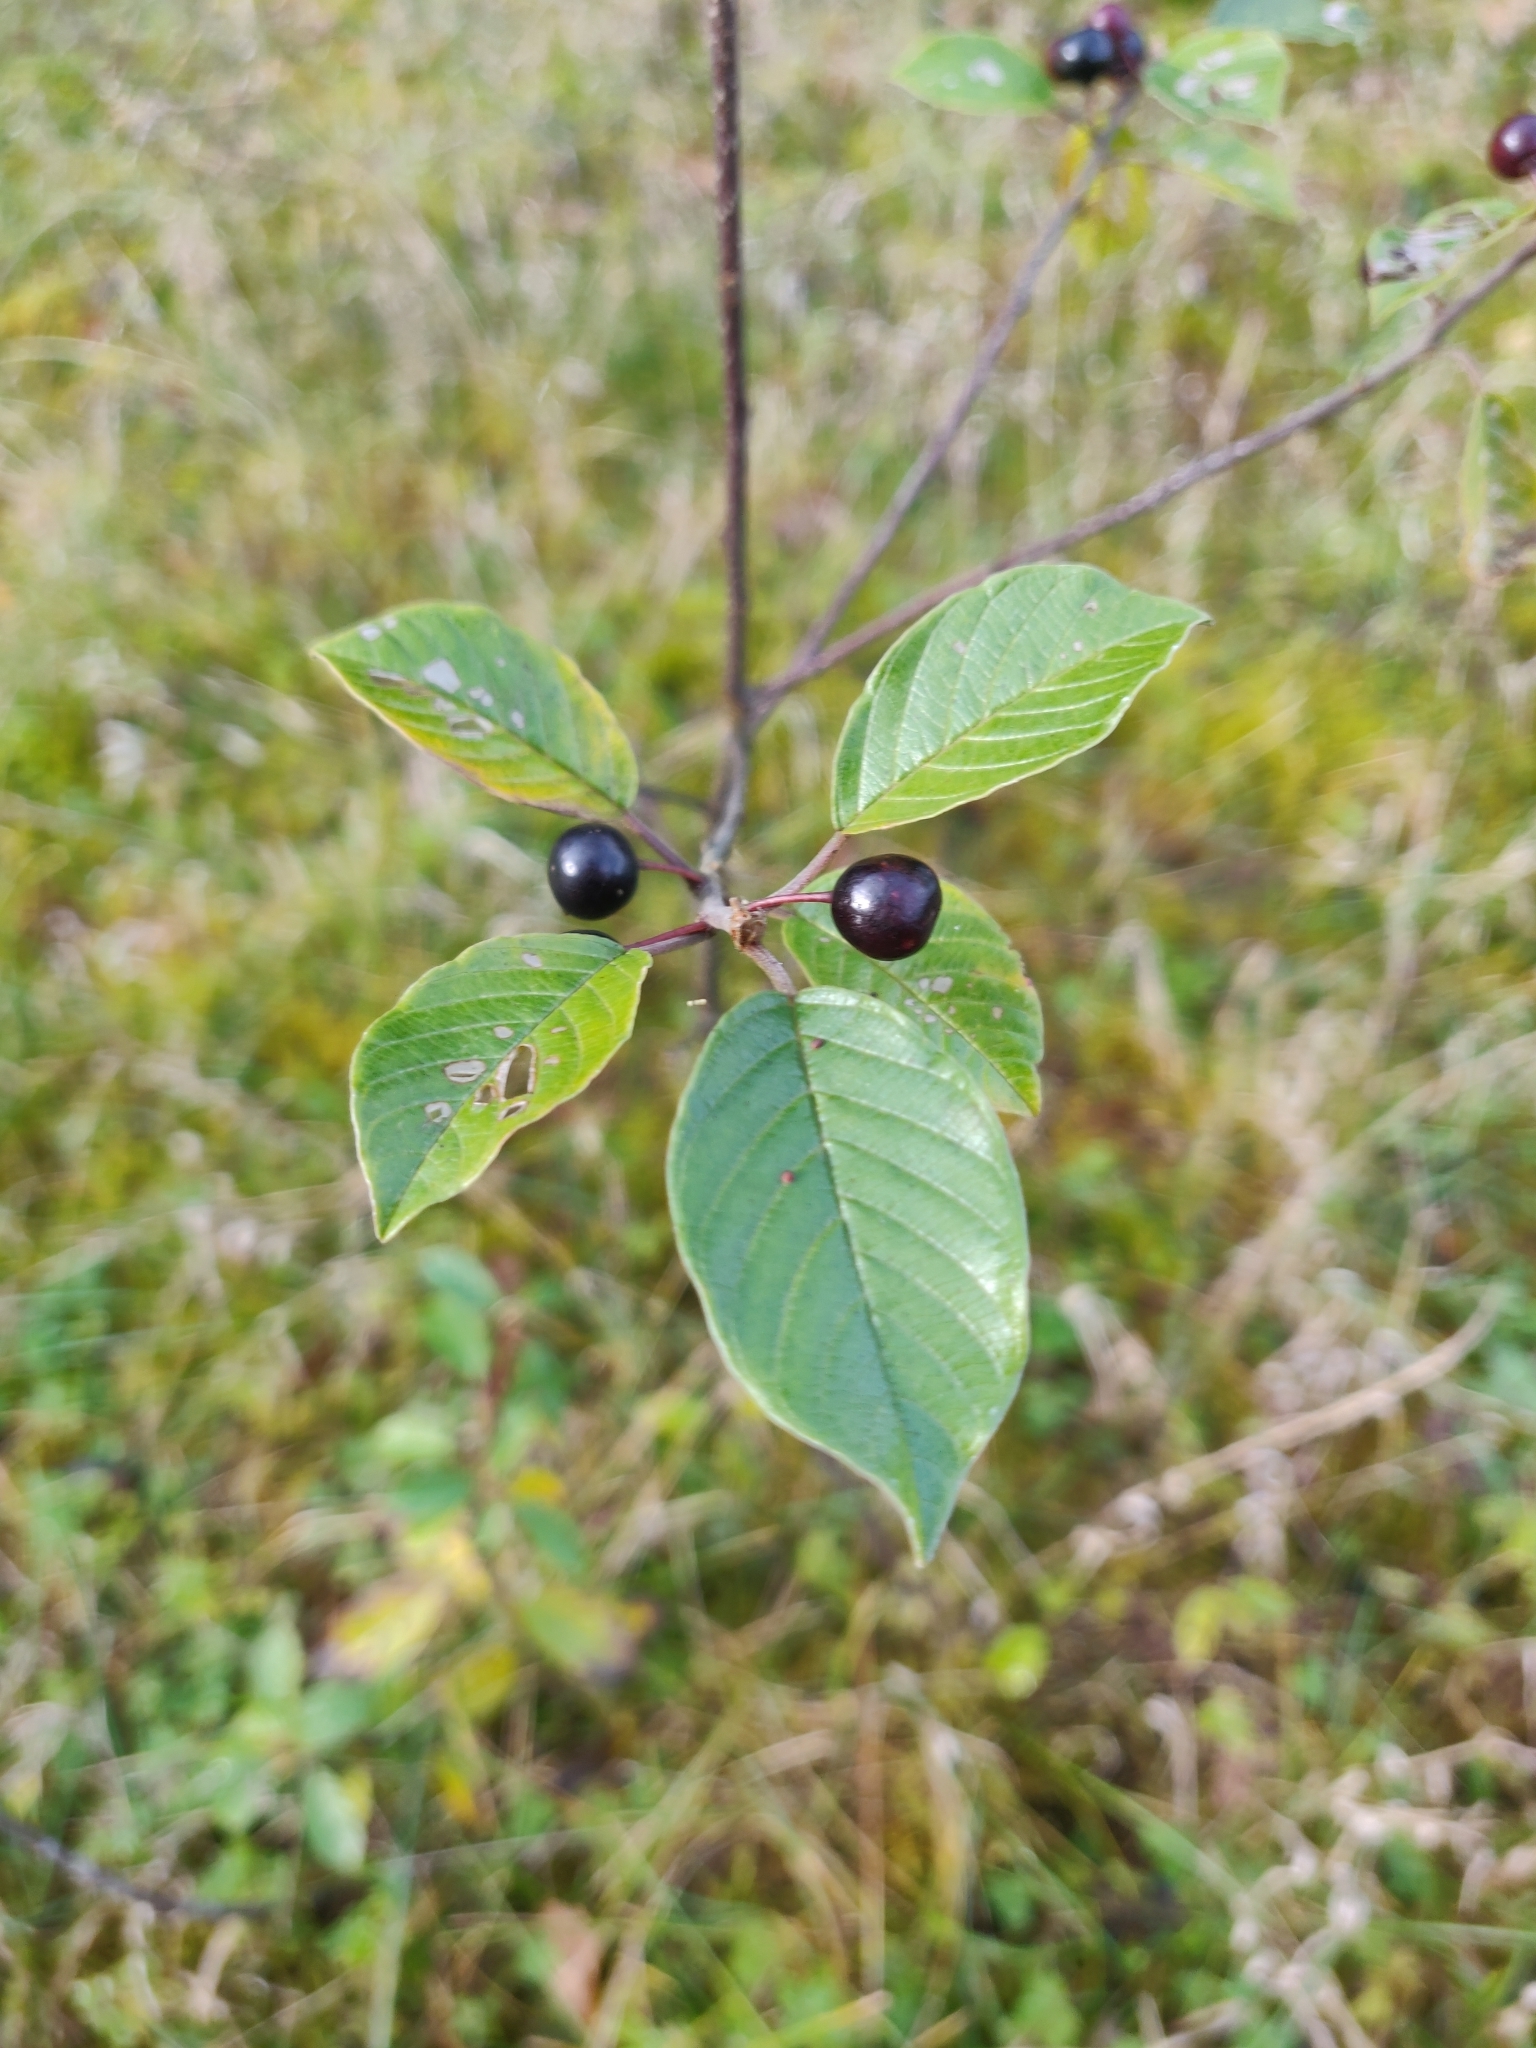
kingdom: Plantae
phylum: Tracheophyta
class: Magnoliopsida
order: Rosales
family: Rhamnaceae
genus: Frangula
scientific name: Frangula alnus
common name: Alder buckthorn
